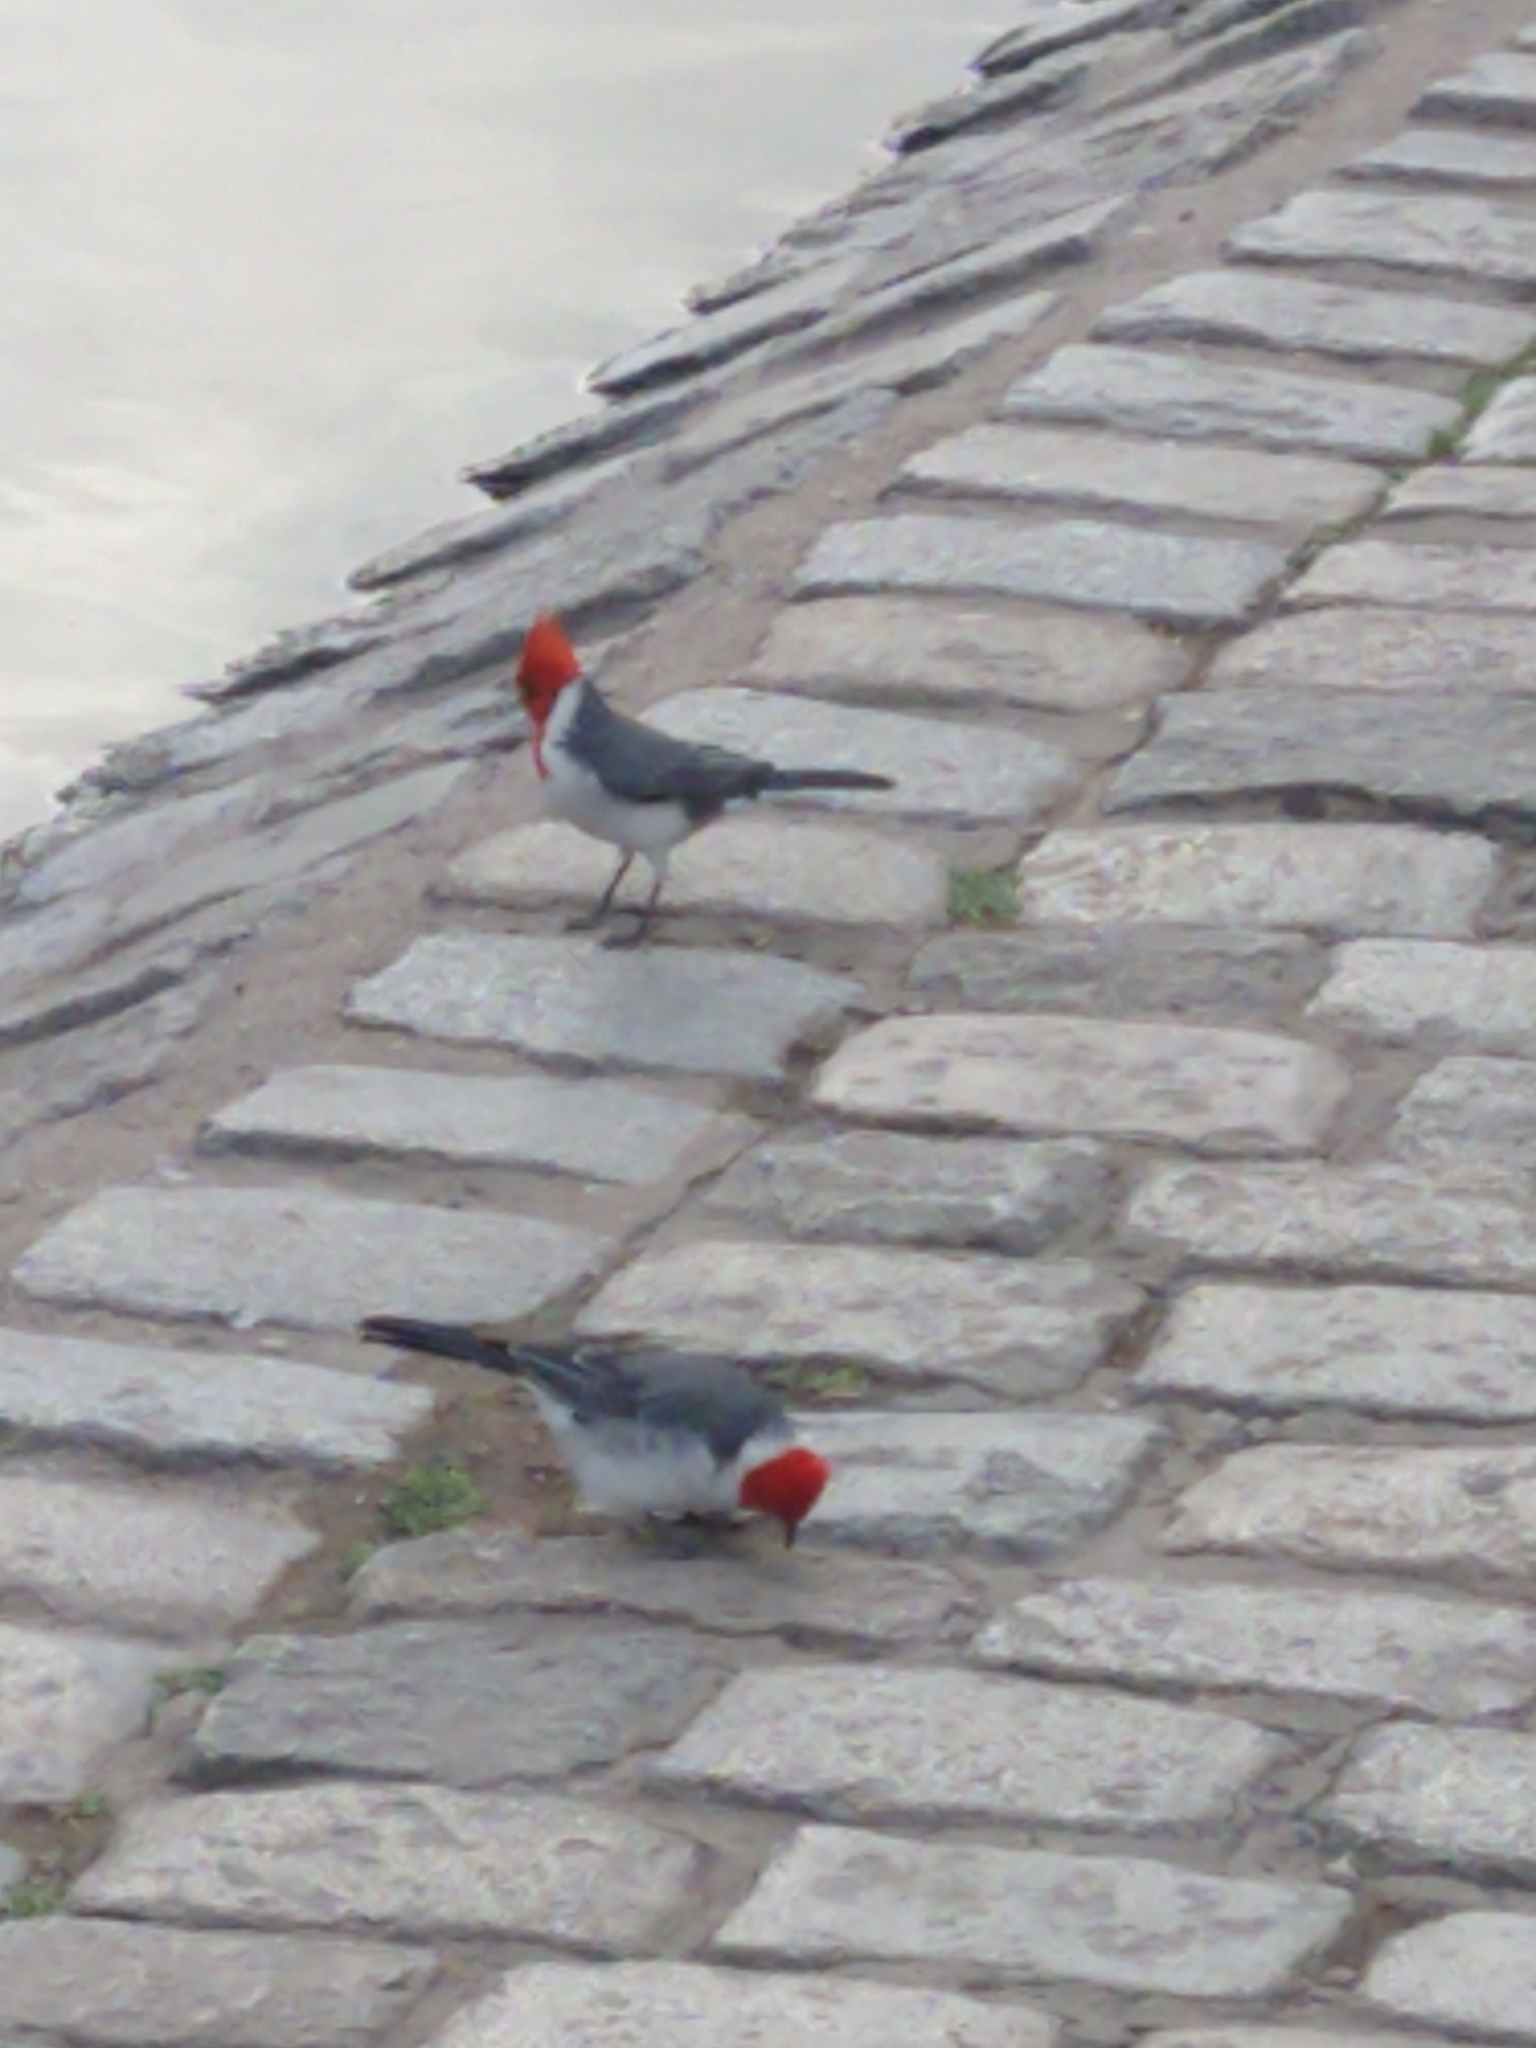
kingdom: Animalia
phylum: Chordata
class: Aves
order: Passeriformes
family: Thraupidae
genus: Paroaria
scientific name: Paroaria coronata
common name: Red-crested cardinal
